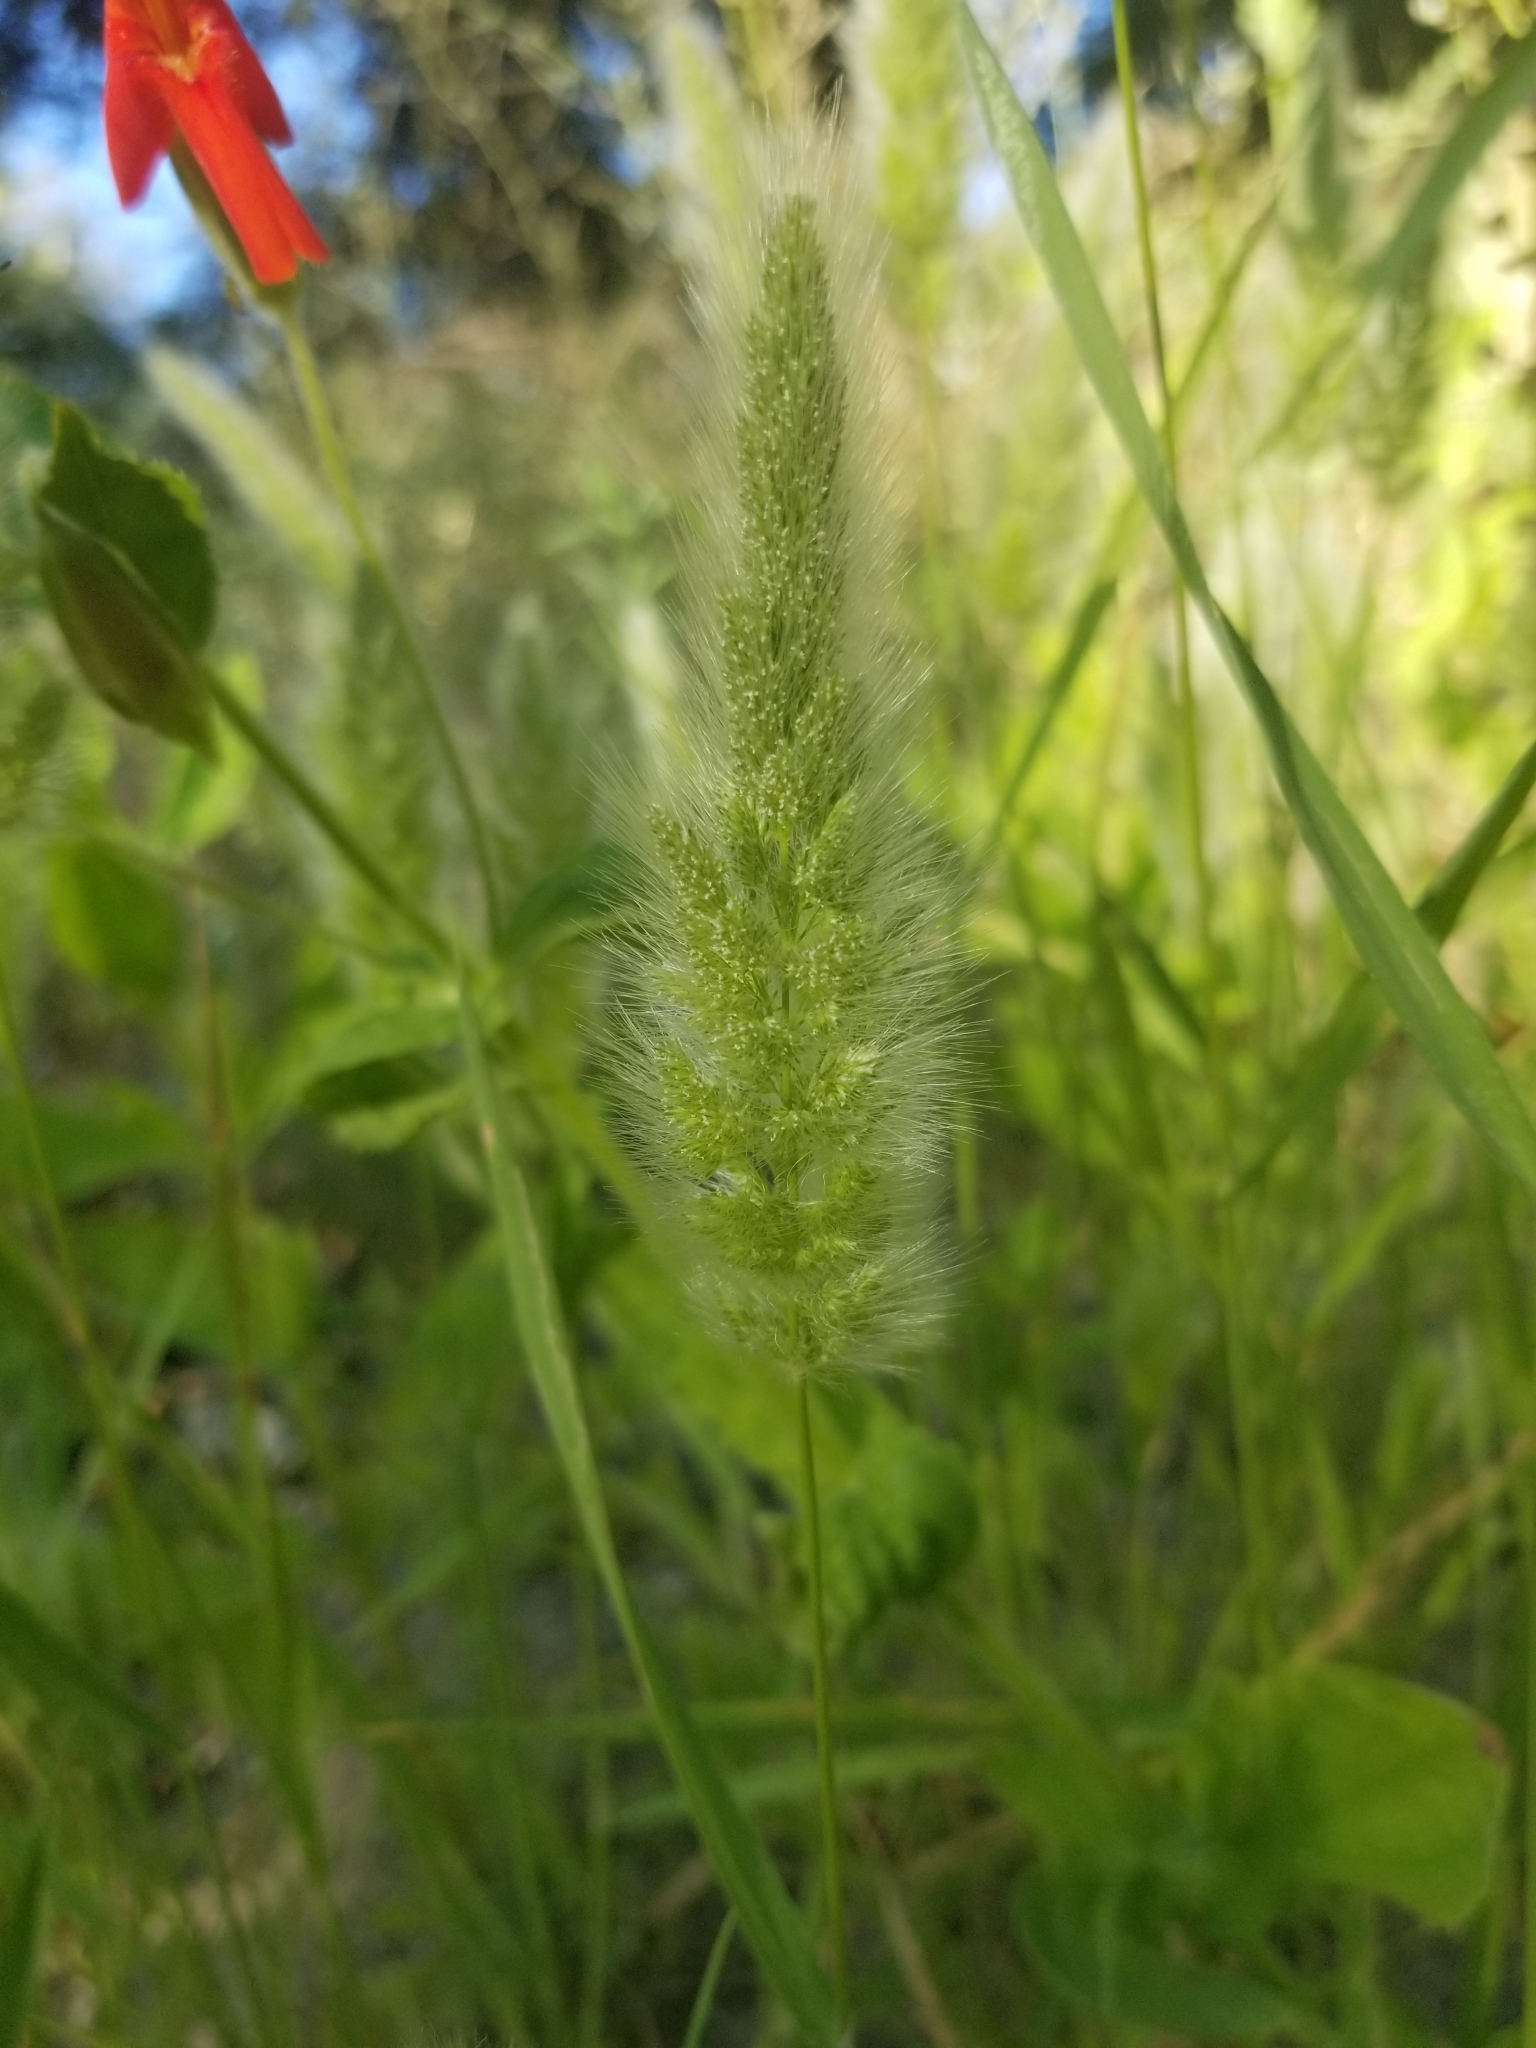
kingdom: Plantae
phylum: Tracheophyta
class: Liliopsida
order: Poales
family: Poaceae
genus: Polypogon
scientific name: Polypogon monspeliensis
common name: Annual rabbitsfoot grass
